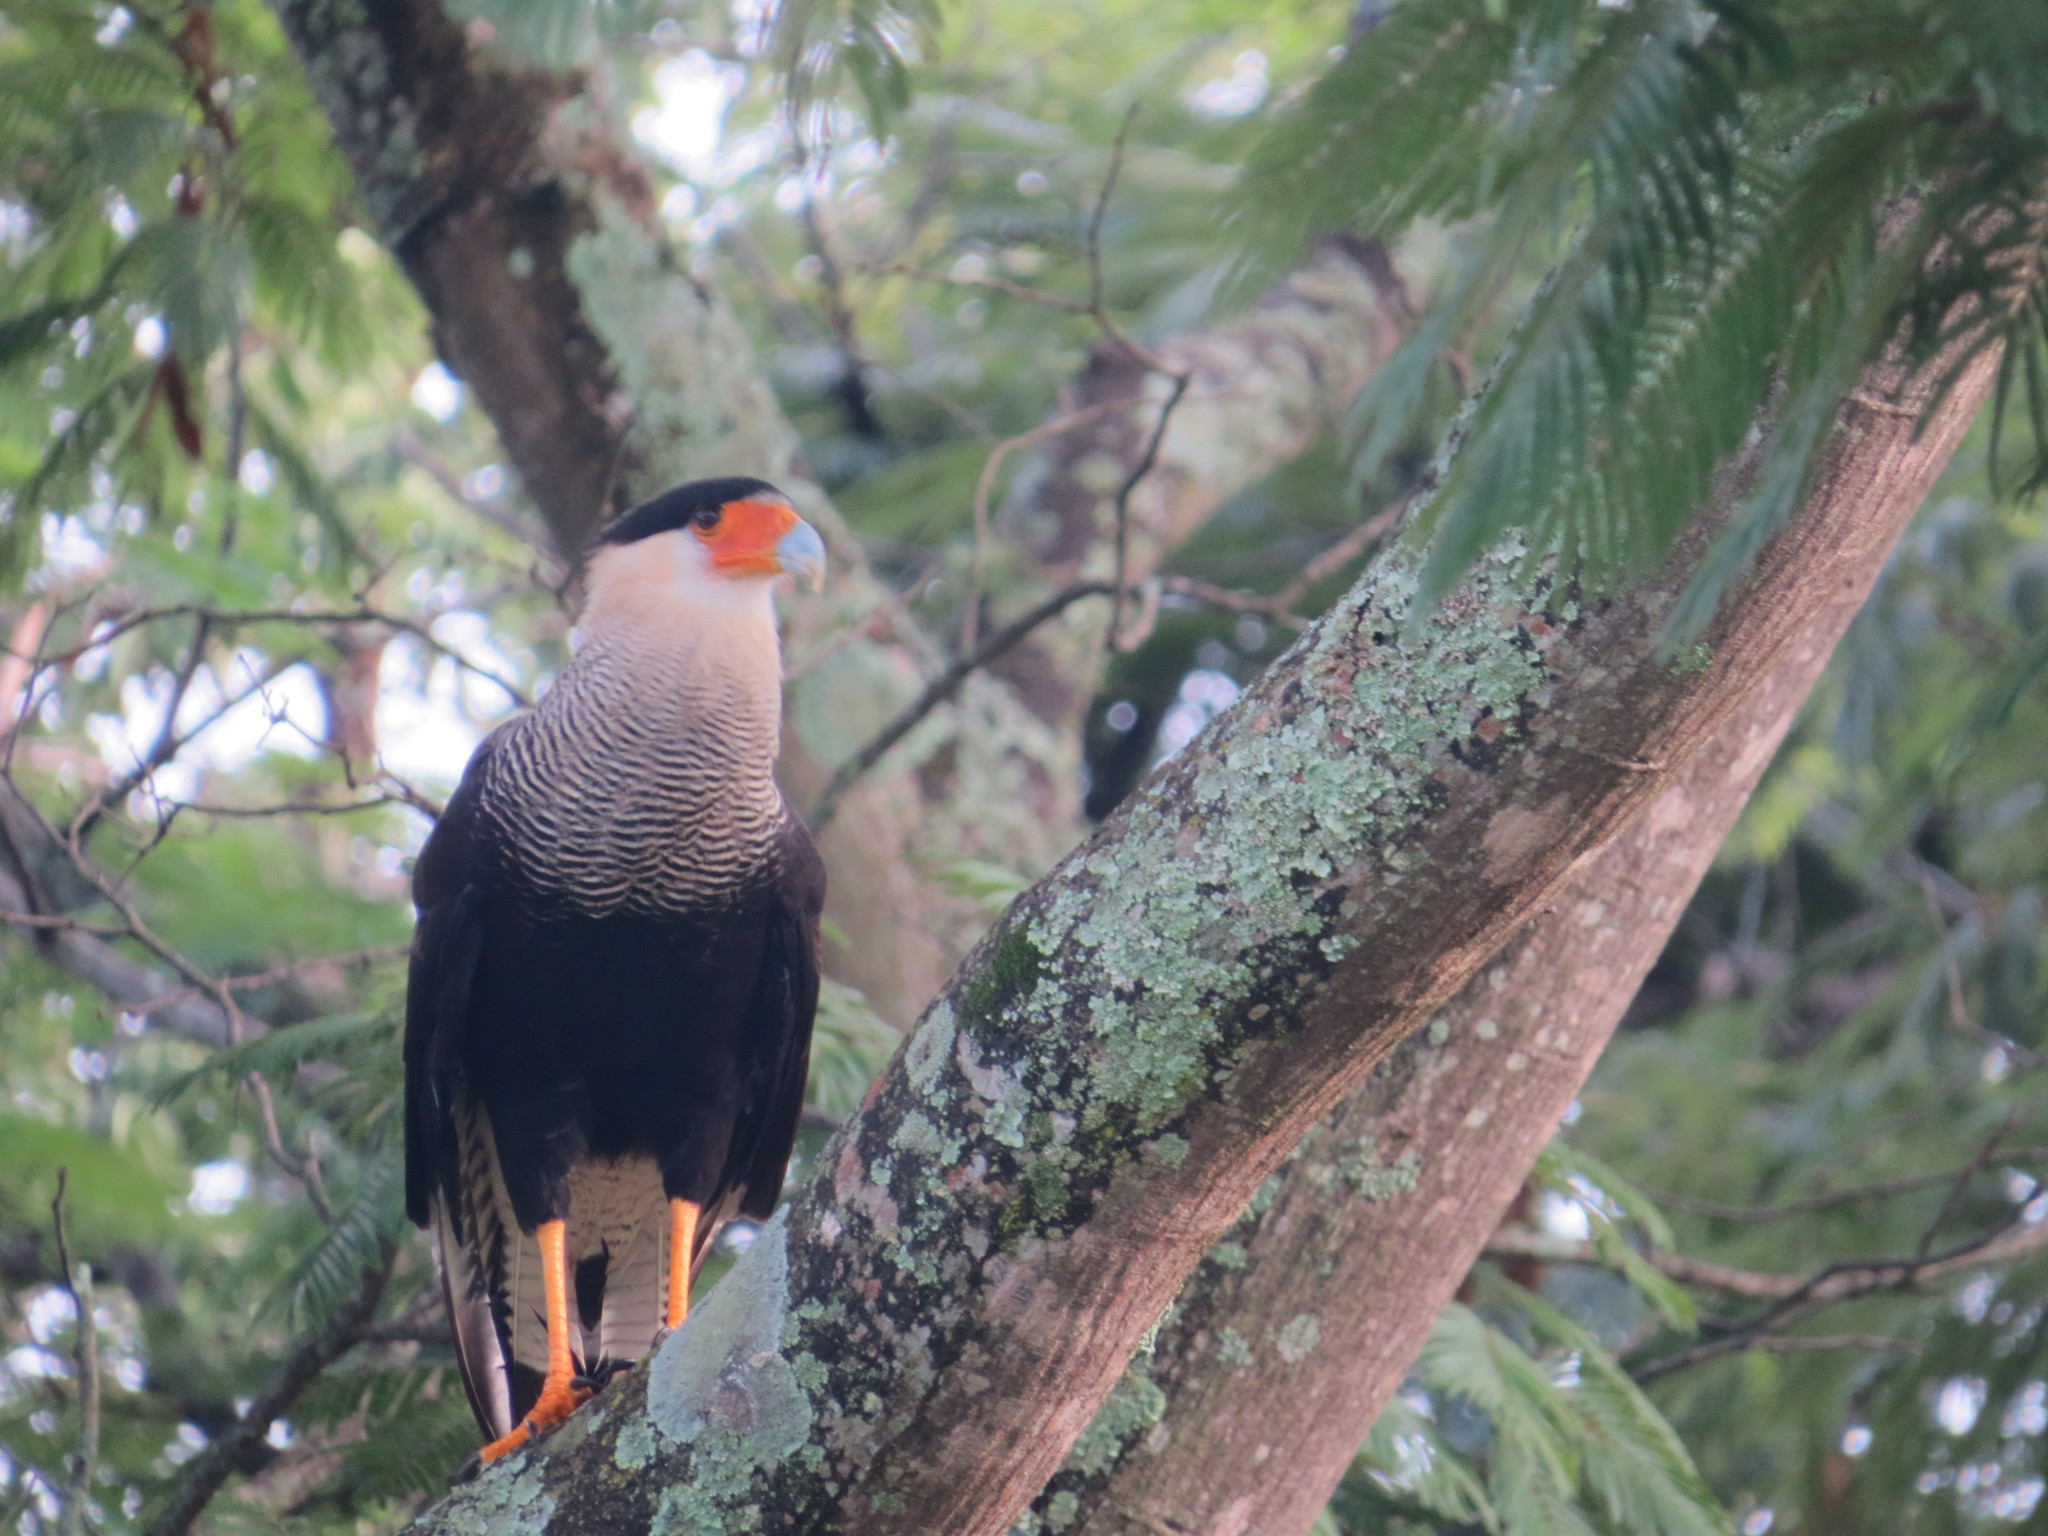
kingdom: Animalia
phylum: Chordata
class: Aves
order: Falconiformes
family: Falconidae
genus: Caracara
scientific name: Caracara plancus
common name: Southern caracara
